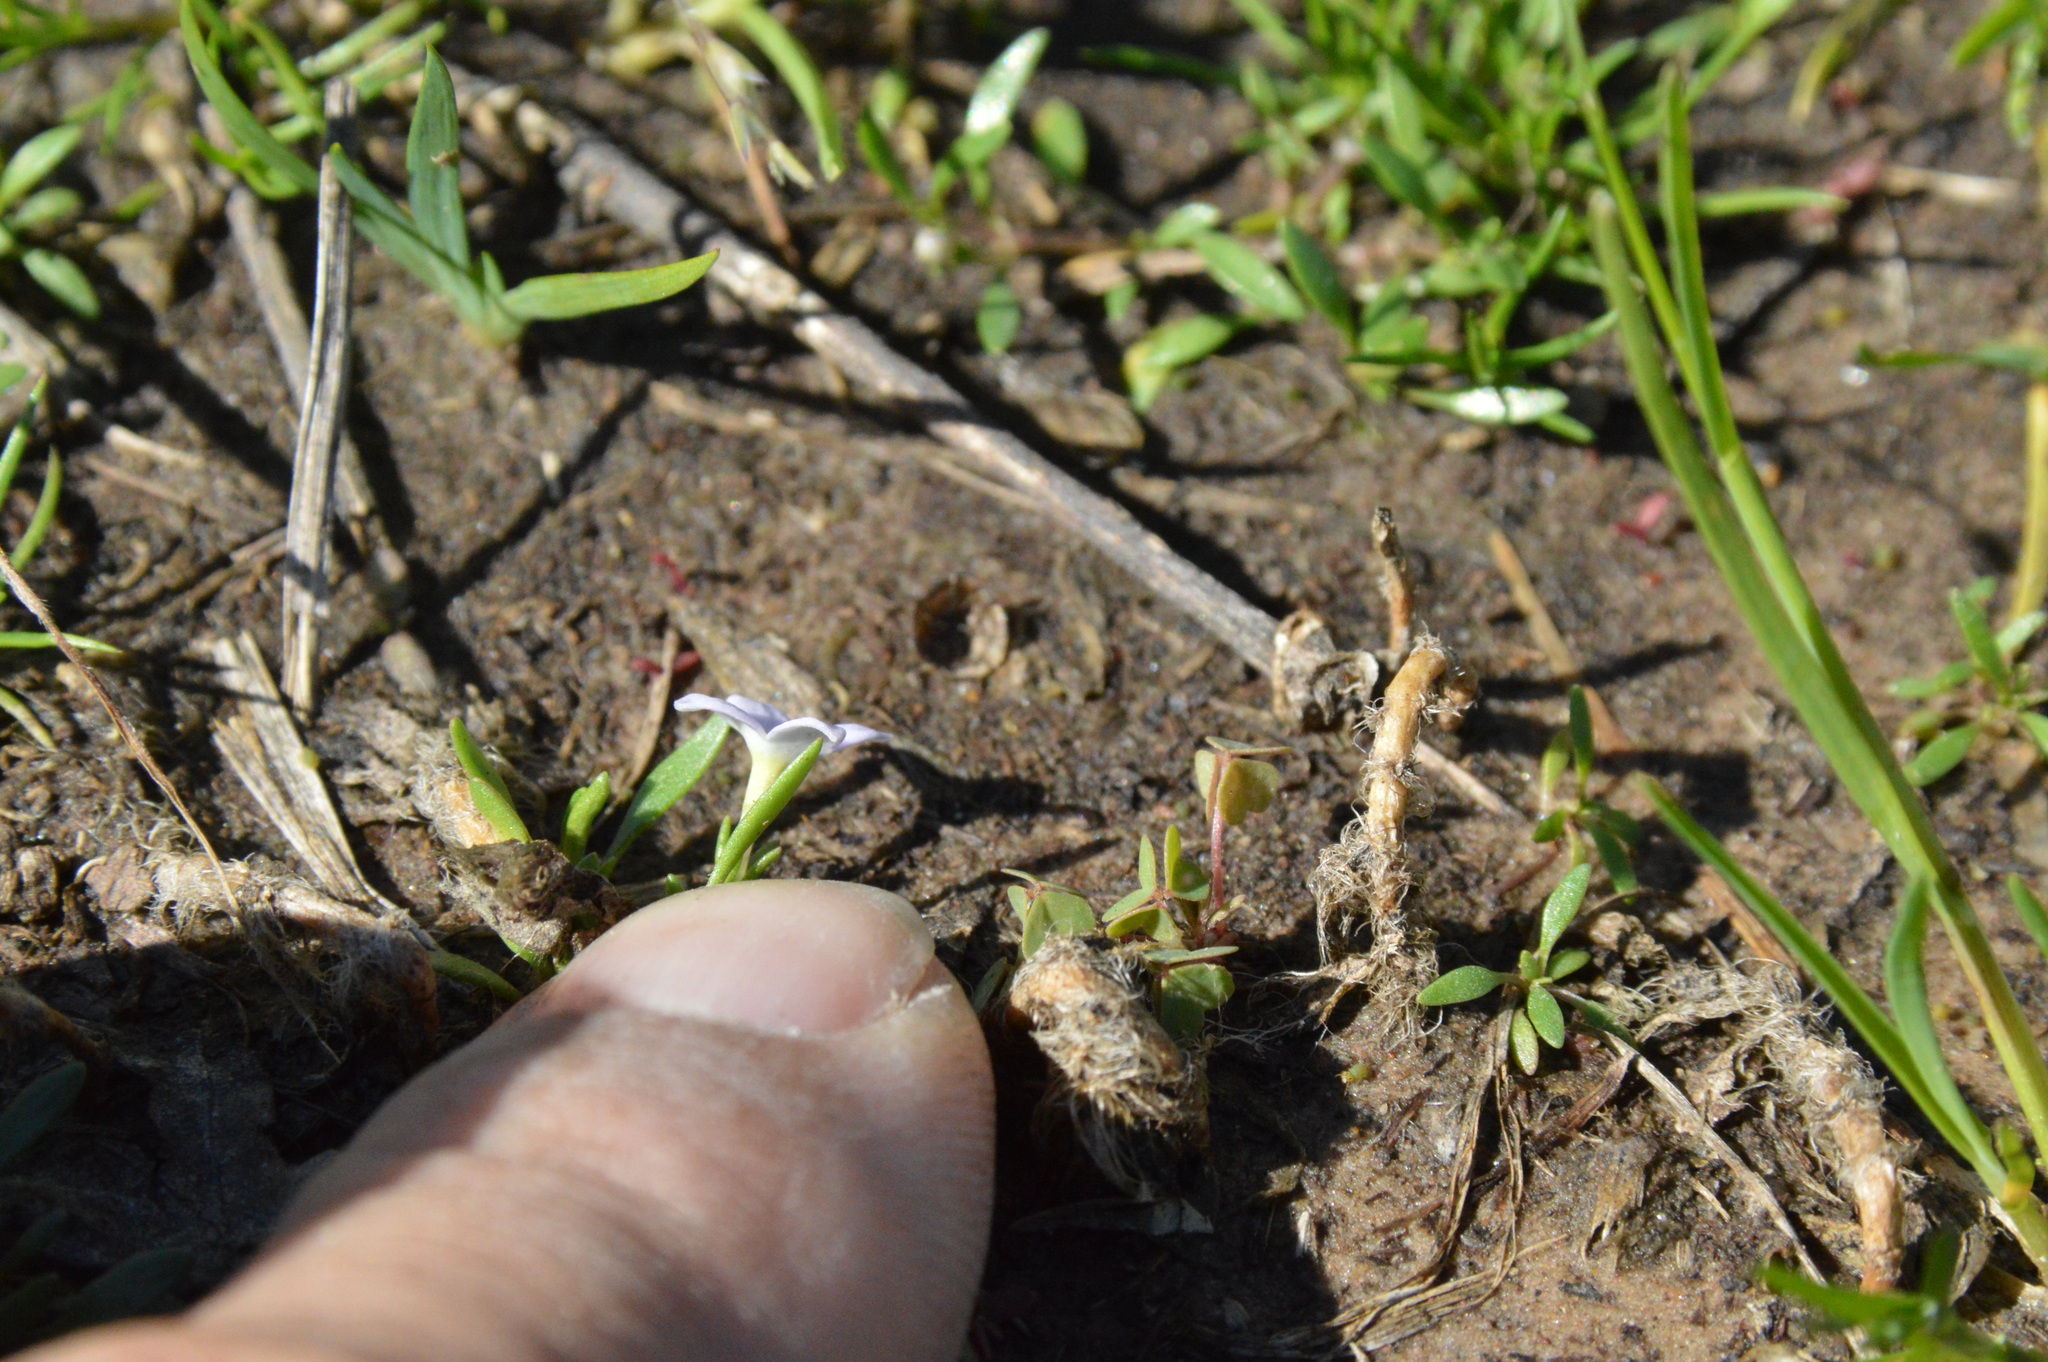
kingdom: Plantae
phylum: Tracheophyta
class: Magnoliopsida
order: Gentianales
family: Rubiaceae
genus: Houstonia
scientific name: Houstonia rosea
